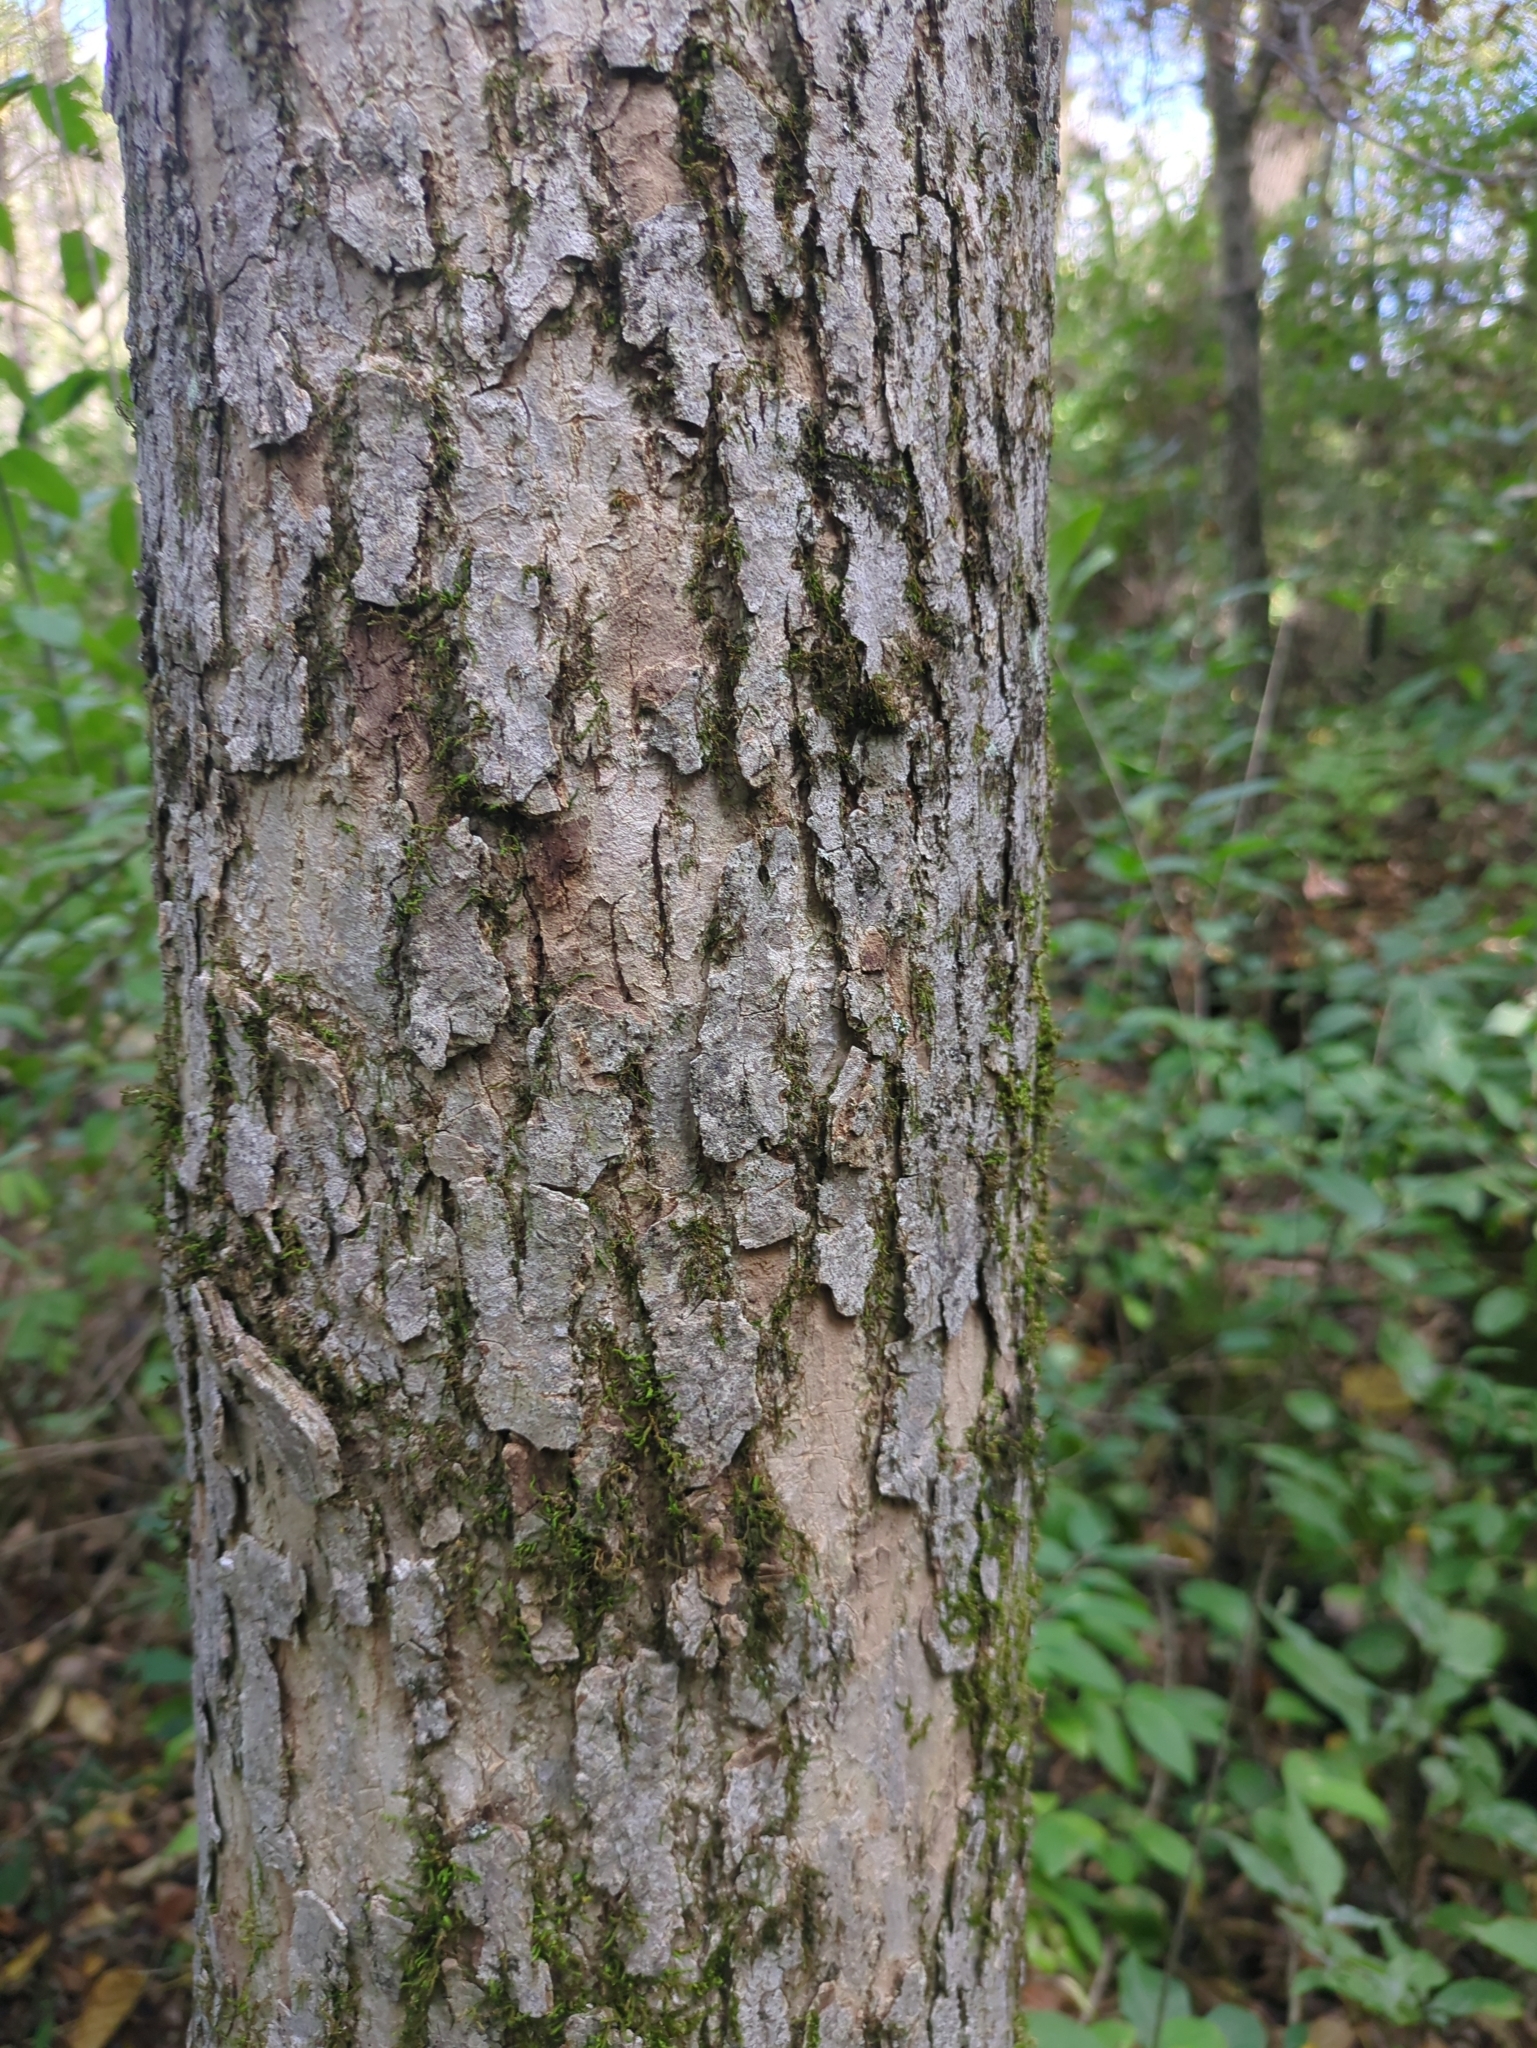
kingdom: Plantae
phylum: Tracheophyta
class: Magnoliopsida
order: Lamiales
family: Oleaceae
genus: Fraxinus
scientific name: Fraxinus nigra
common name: Black ash
